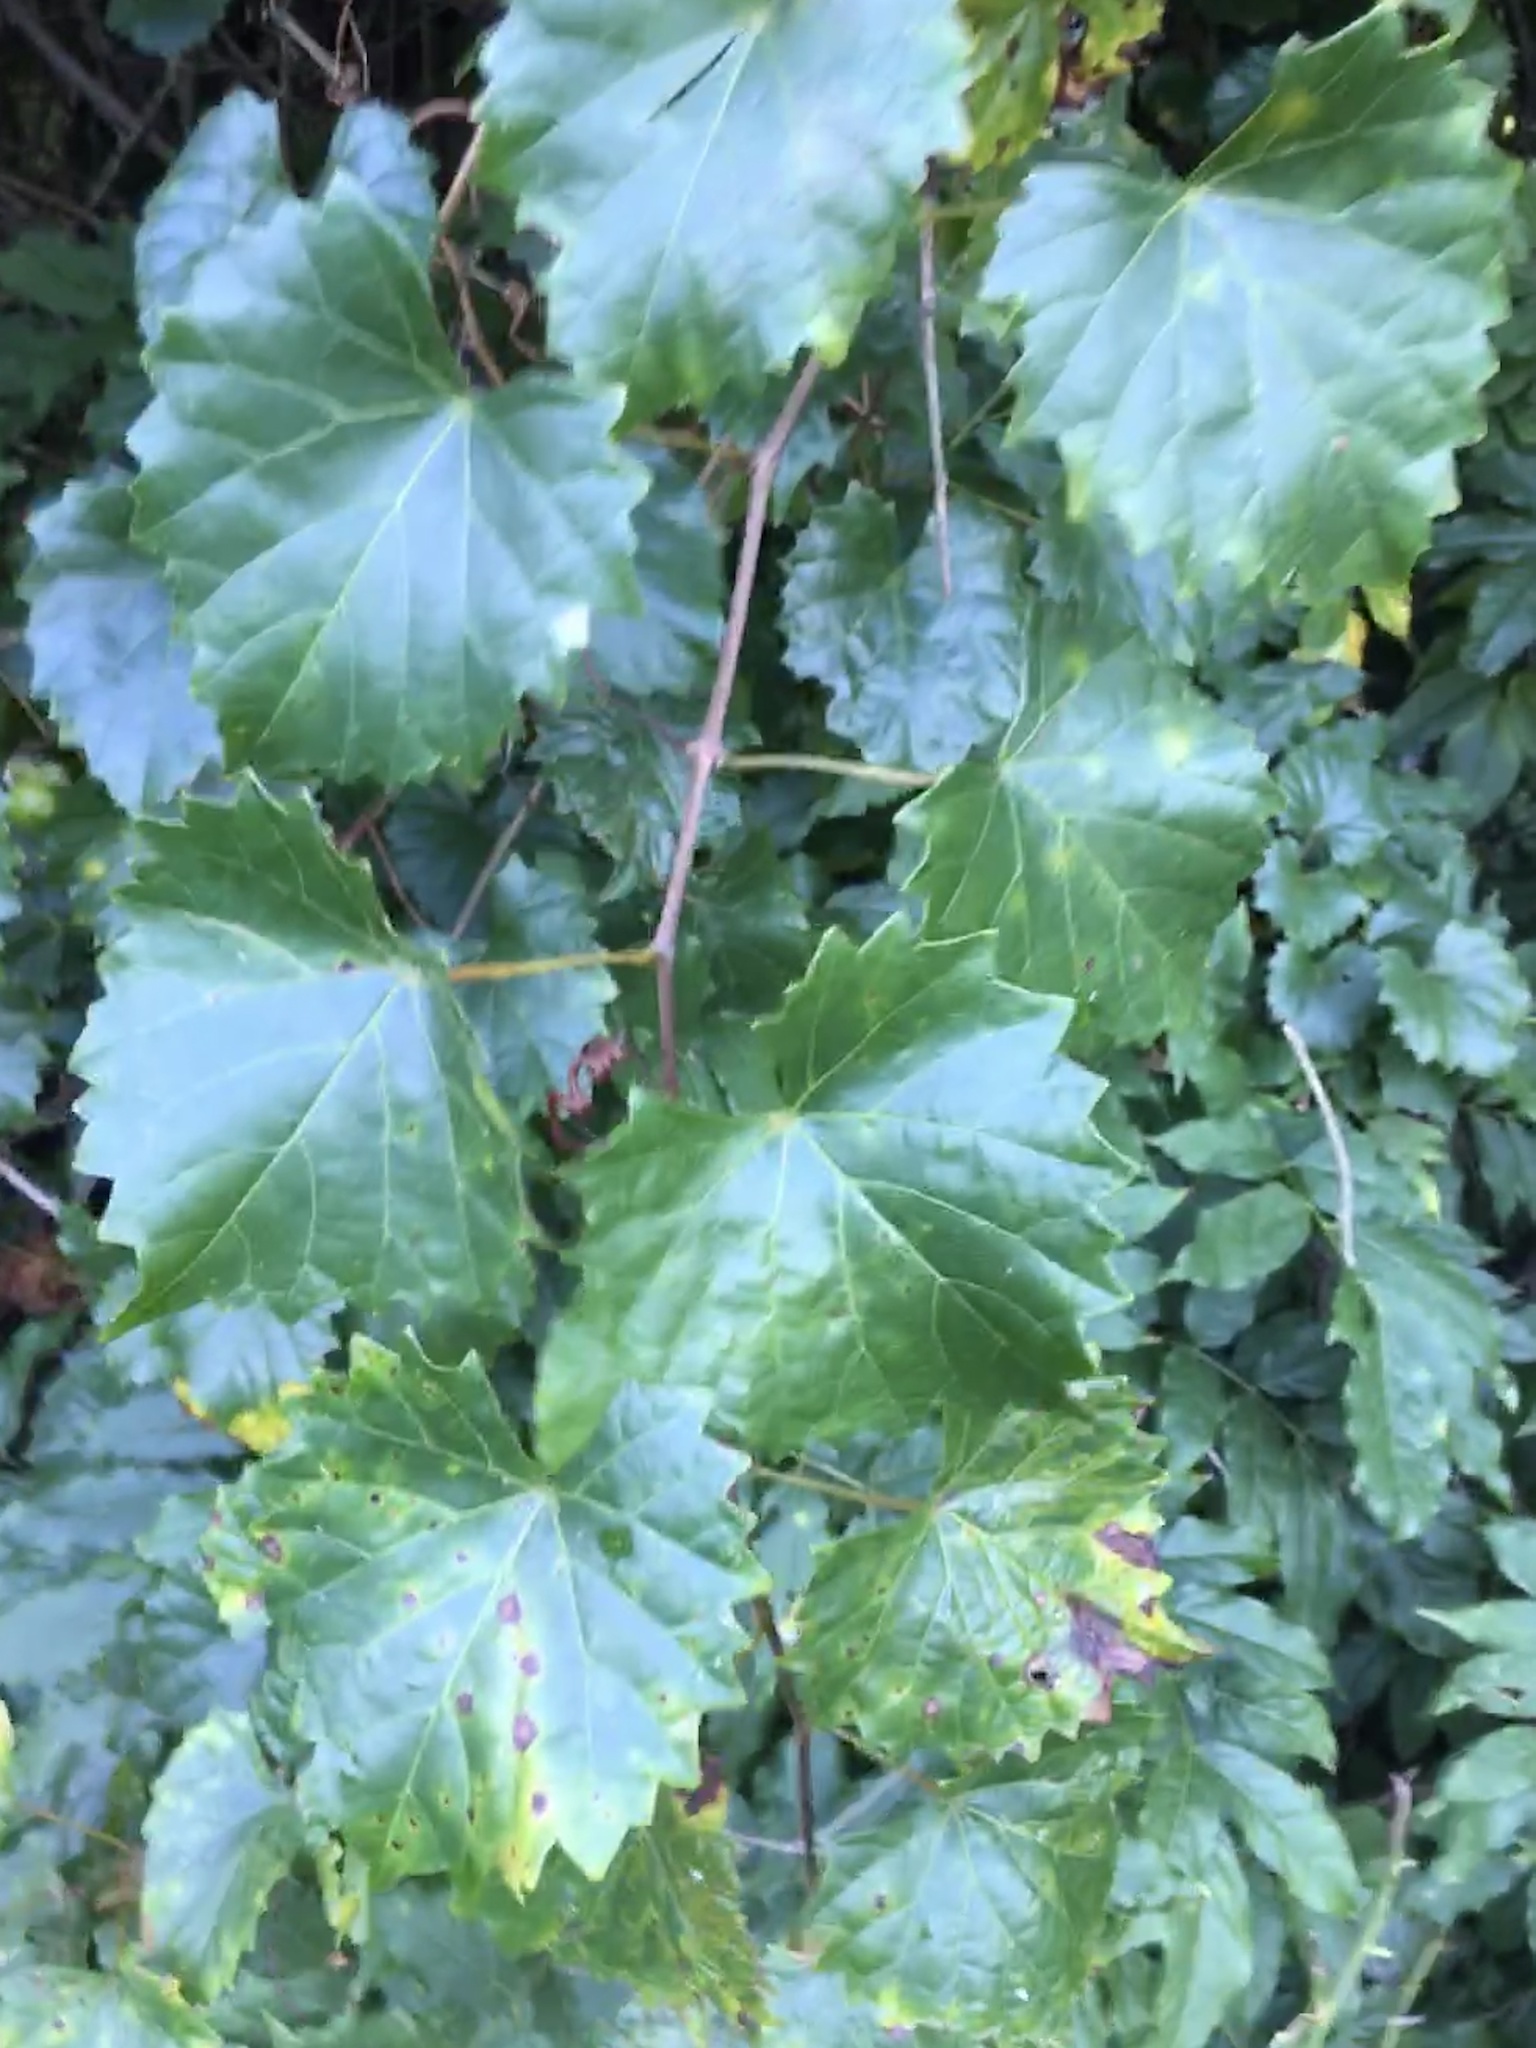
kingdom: Plantae
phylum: Tracheophyta
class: Magnoliopsida
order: Vitales
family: Vitaceae
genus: Vitis
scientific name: Vitis rotundifolia
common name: Muscadine grape
